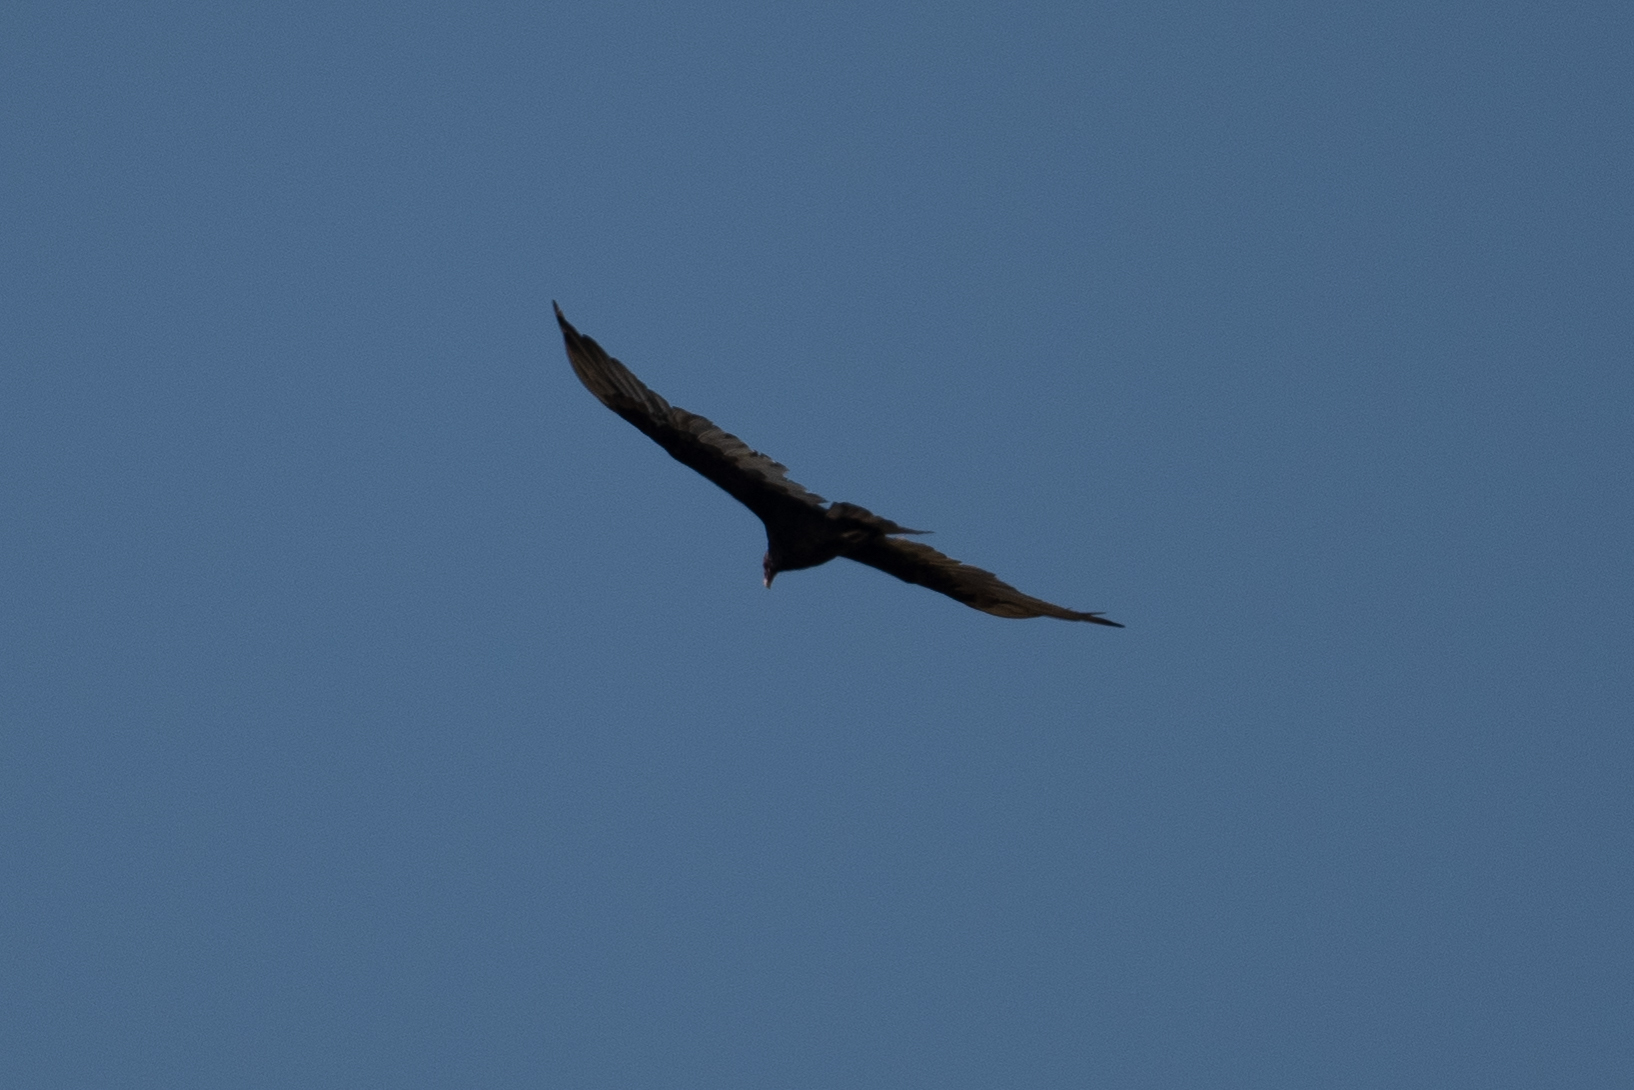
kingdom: Animalia
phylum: Chordata
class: Aves
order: Accipitriformes
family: Cathartidae
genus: Cathartes
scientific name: Cathartes aura
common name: Turkey vulture
